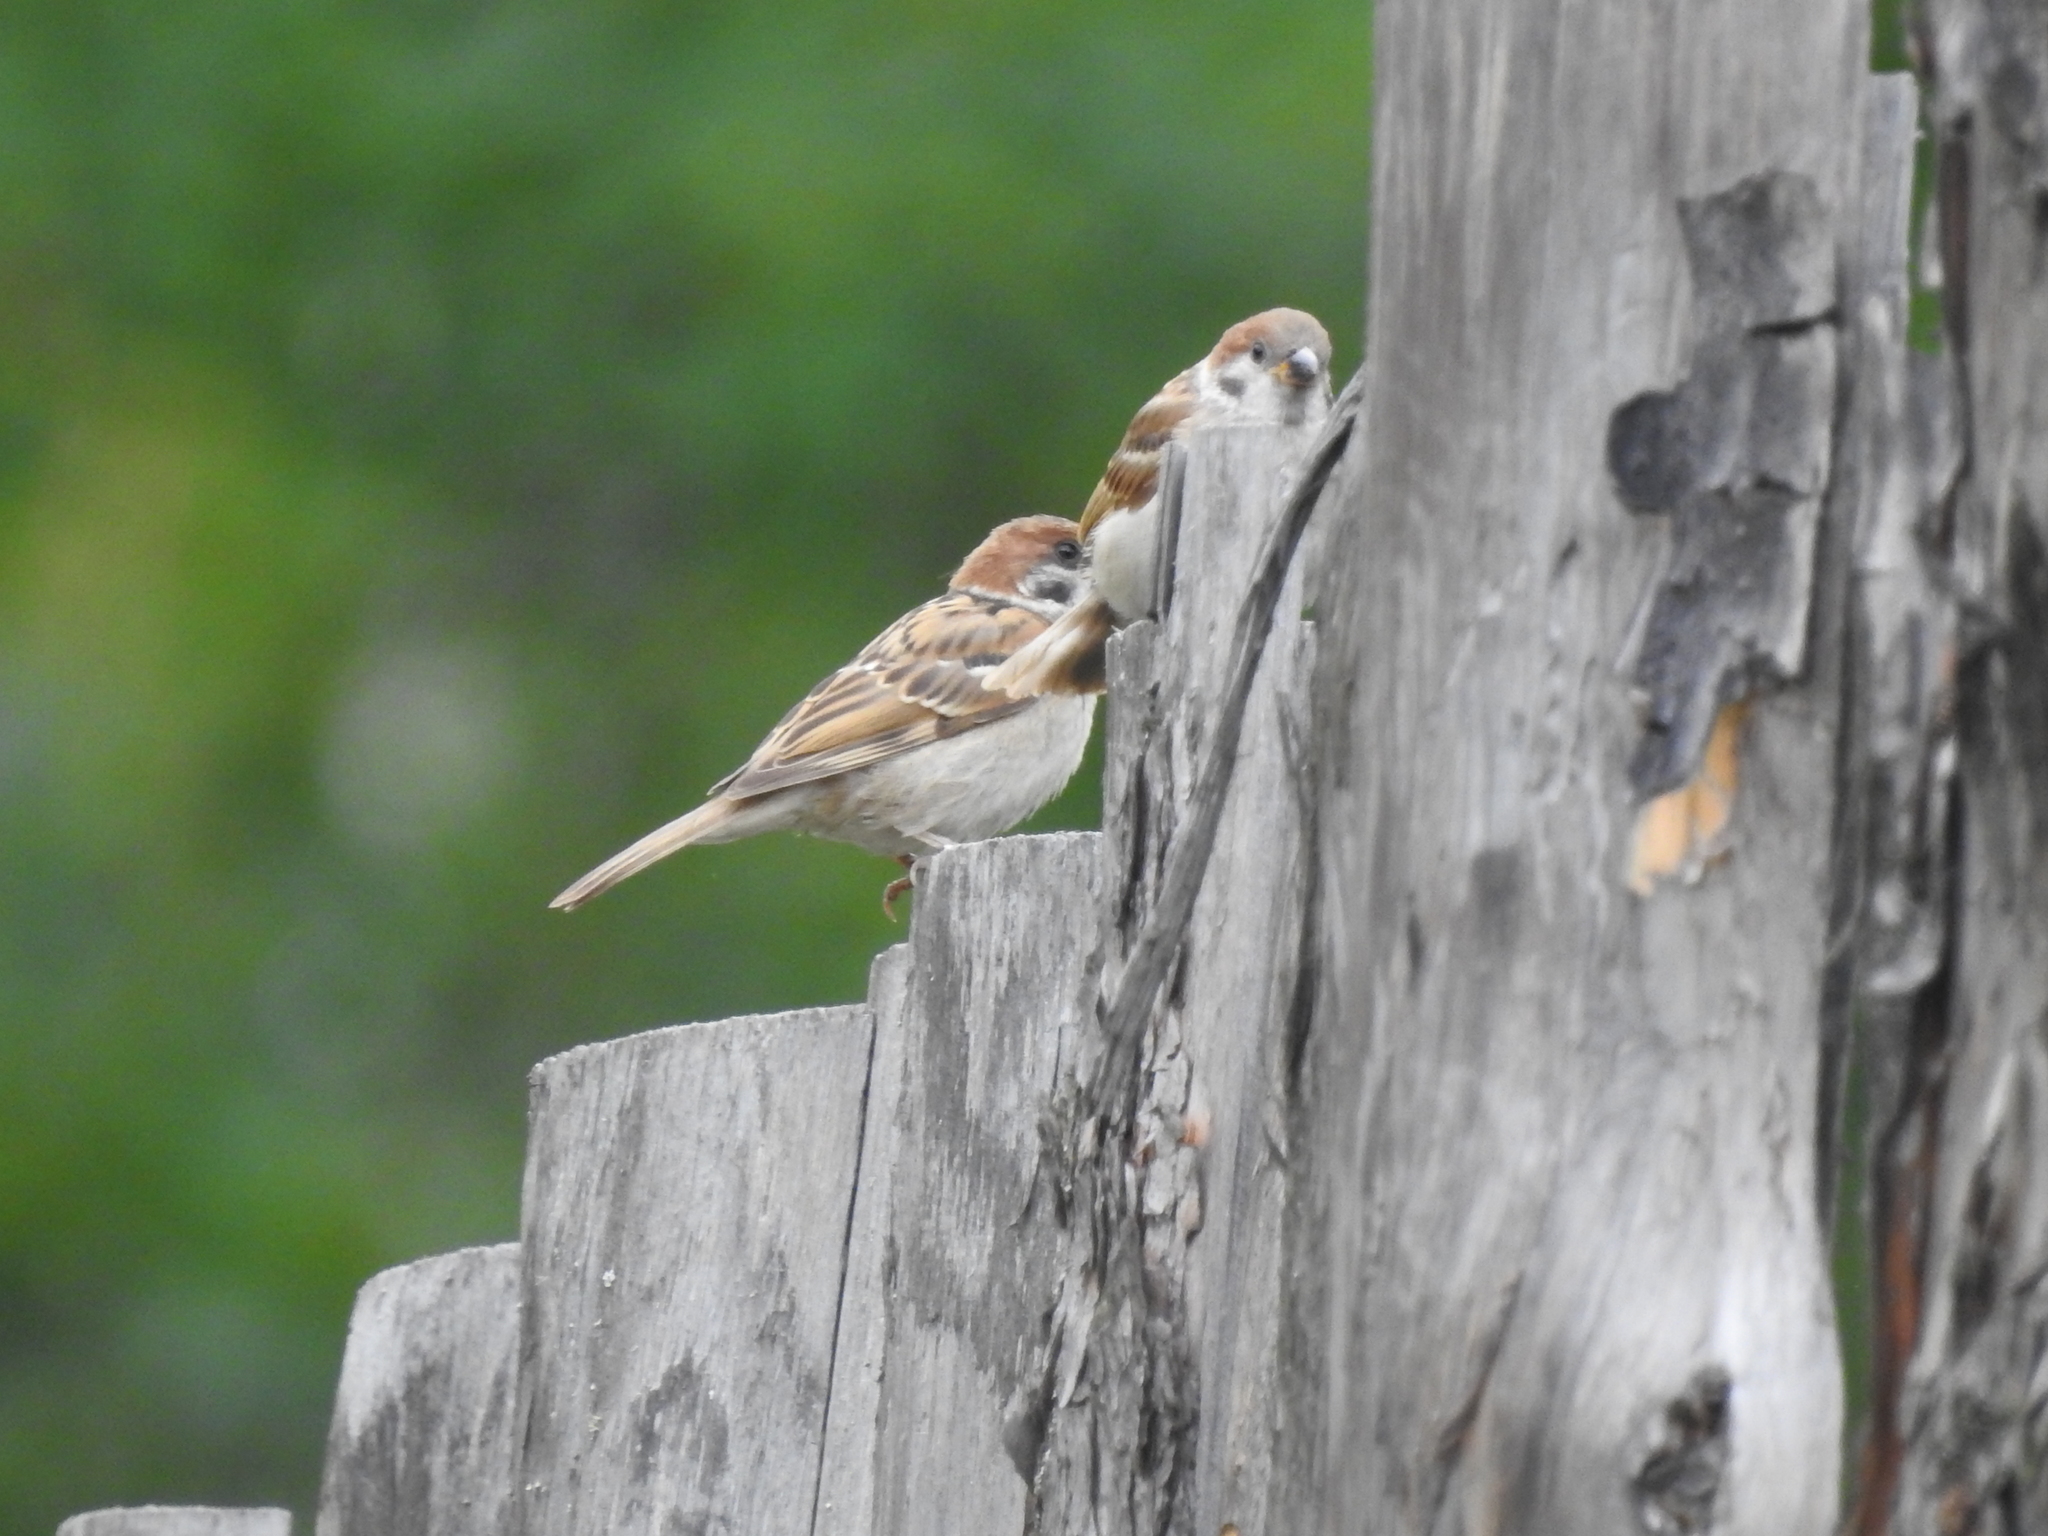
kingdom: Animalia
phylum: Chordata
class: Aves
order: Passeriformes
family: Passeridae
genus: Passer
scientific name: Passer montanus
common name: Eurasian tree sparrow
